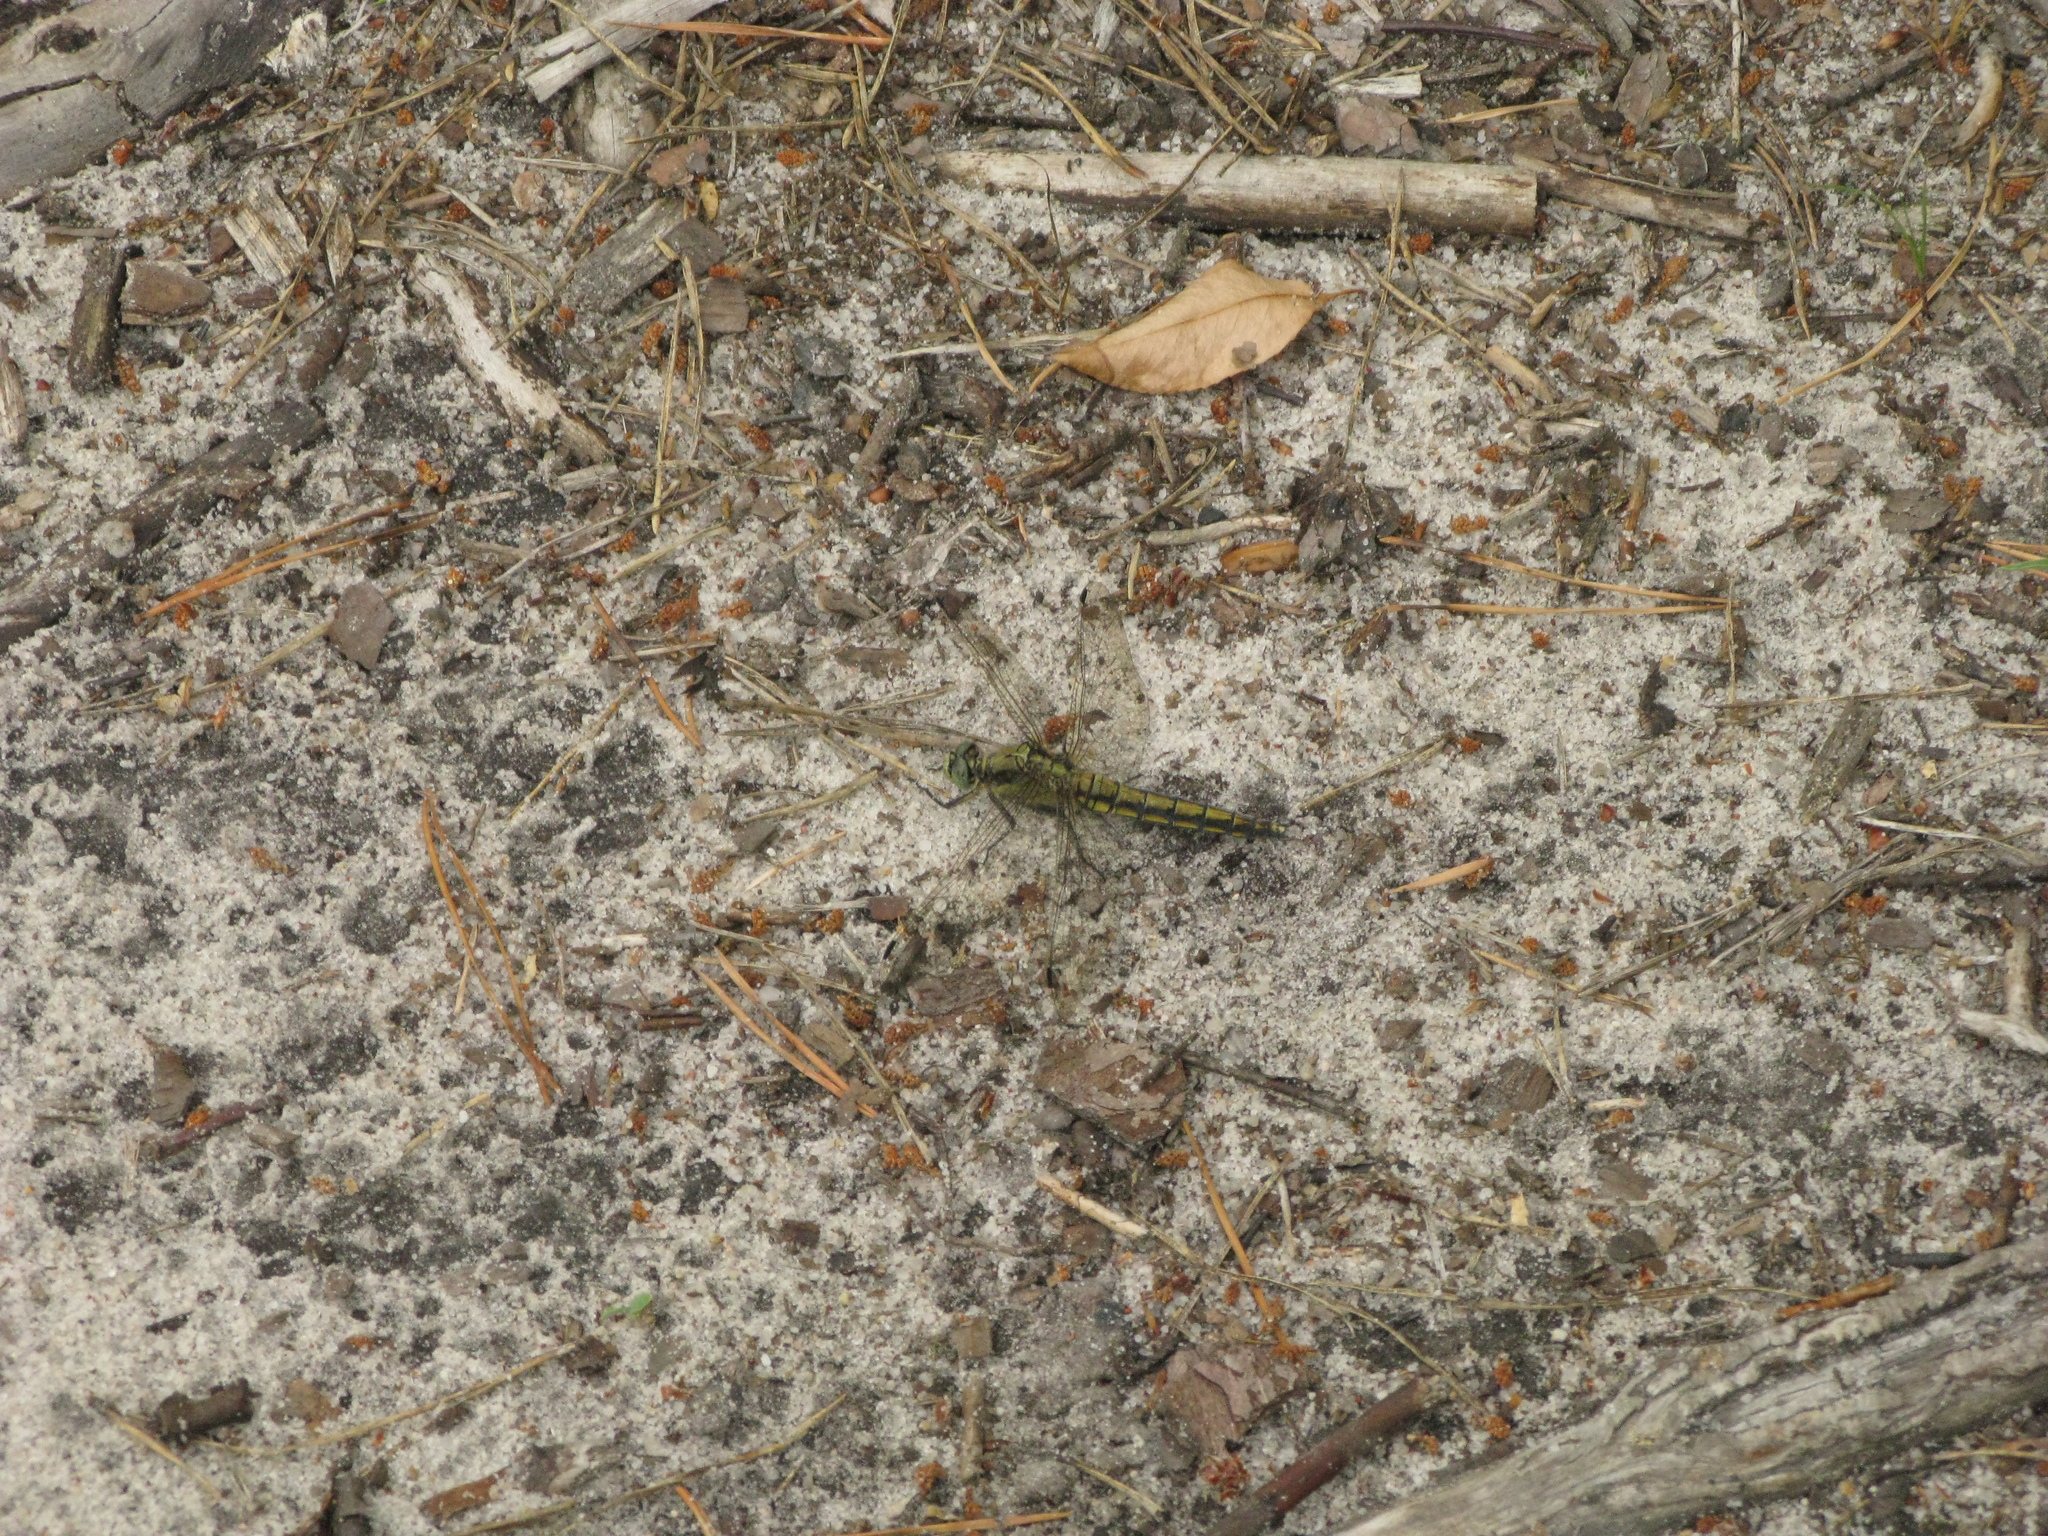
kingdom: Animalia
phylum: Arthropoda
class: Insecta
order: Odonata
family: Libellulidae
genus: Orthetrum
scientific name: Orthetrum cancellatum
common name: Black-tailed skimmer
